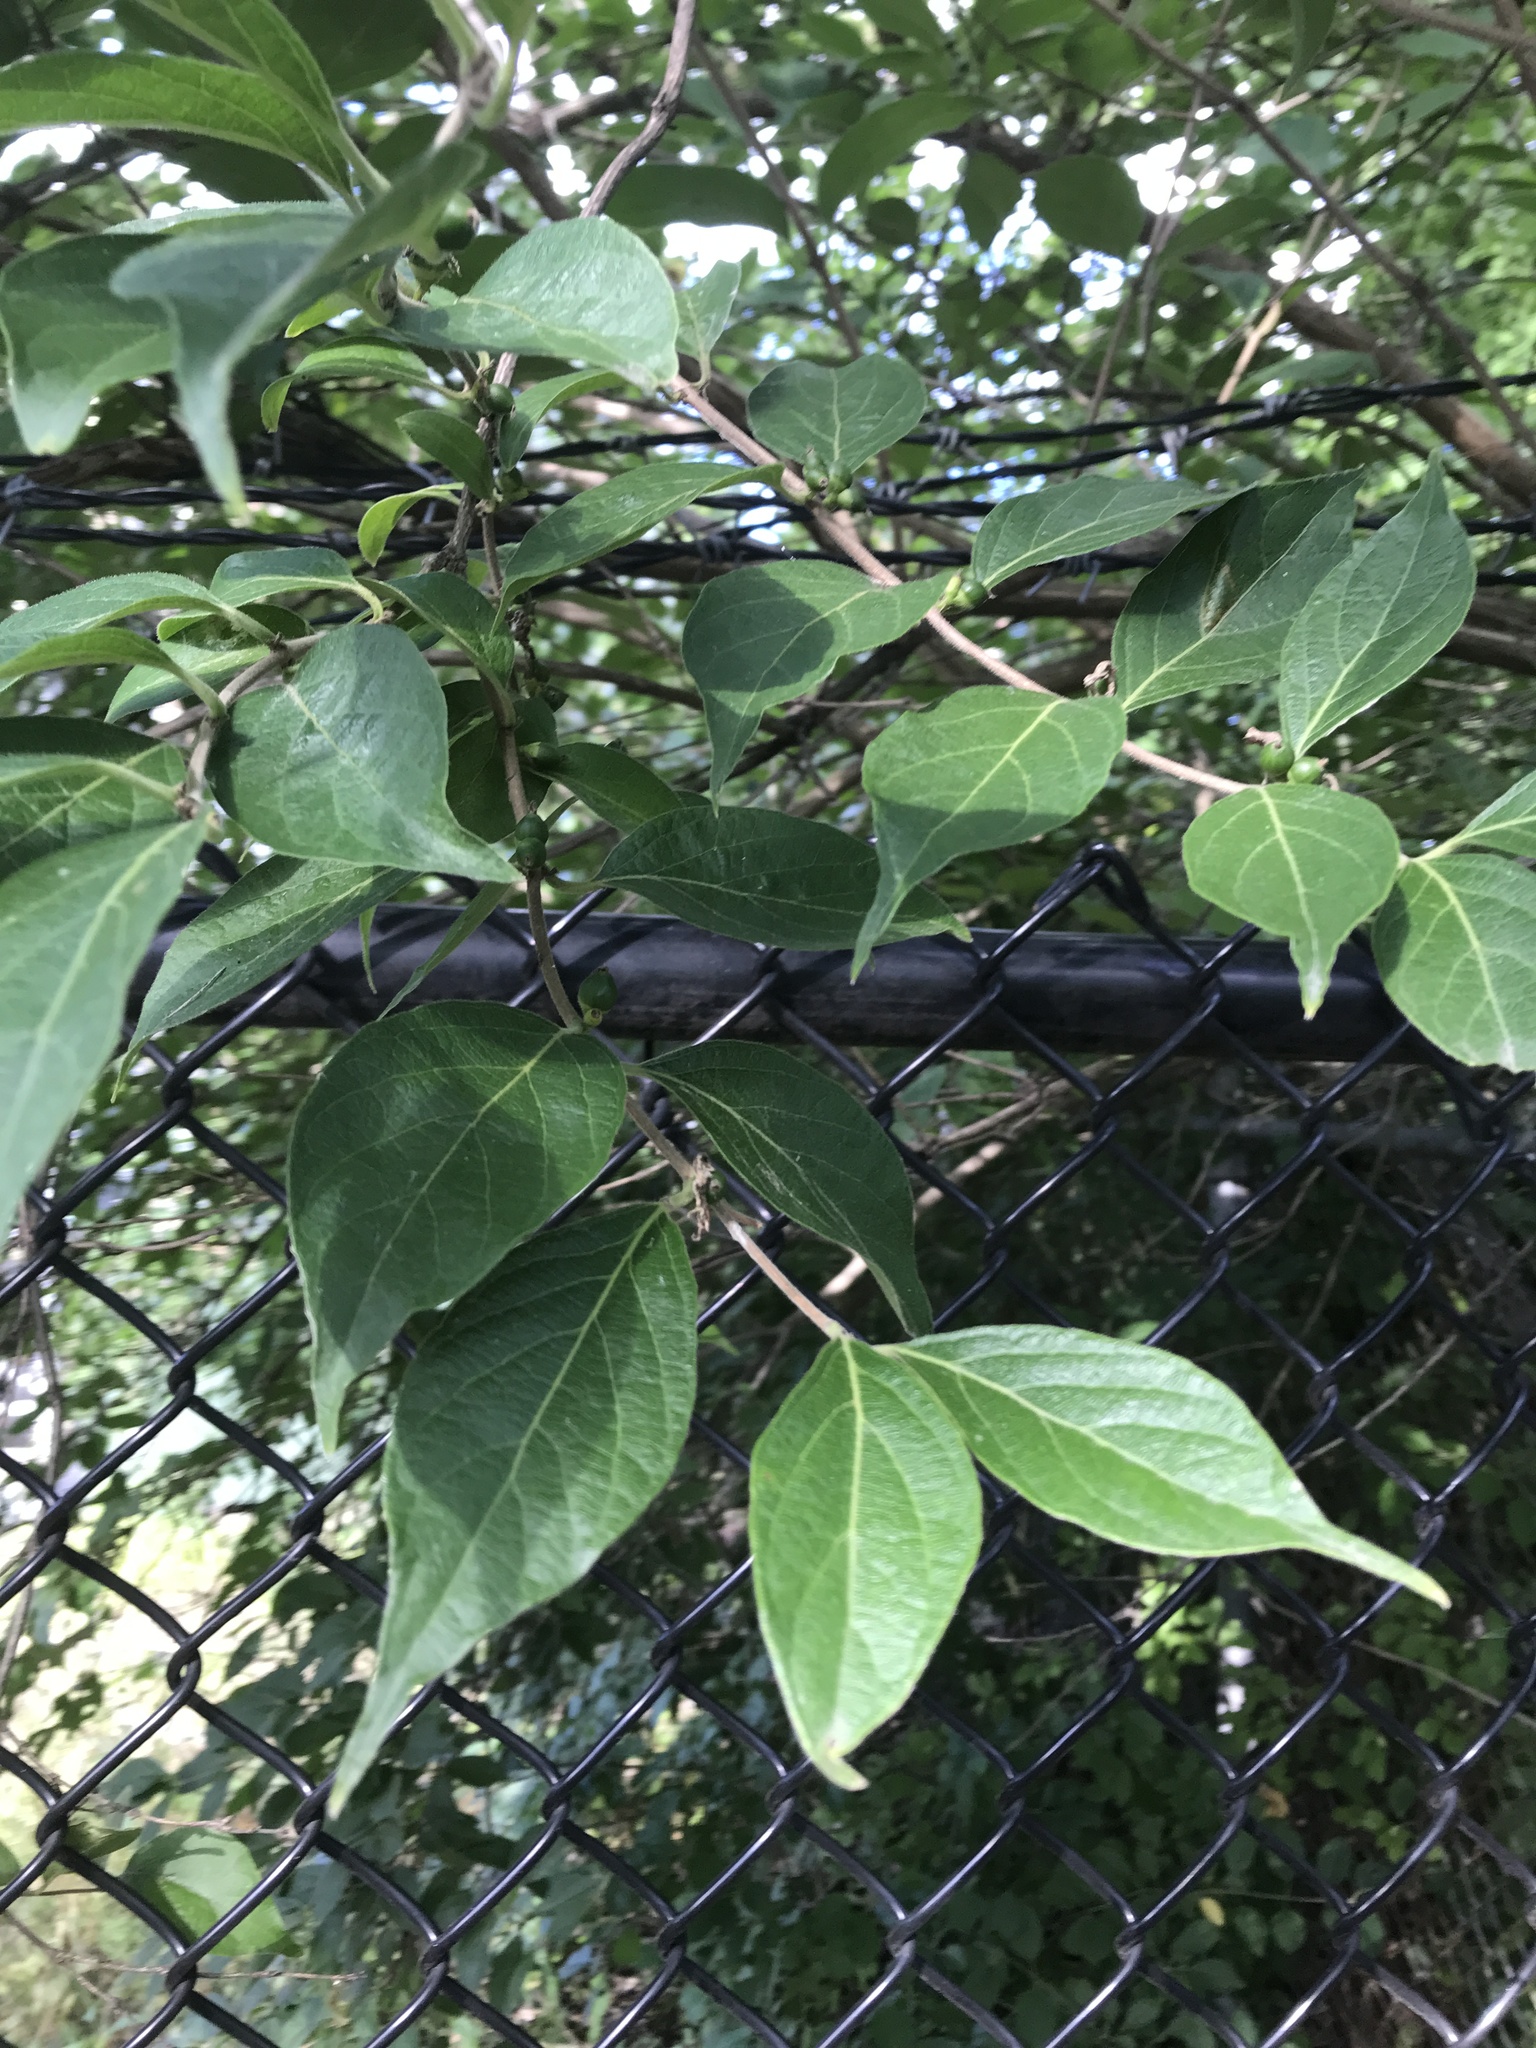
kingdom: Plantae
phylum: Tracheophyta
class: Magnoliopsida
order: Dipsacales
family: Caprifoliaceae
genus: Lonicera
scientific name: Lonicera maackii
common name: Amur honeysuckle
